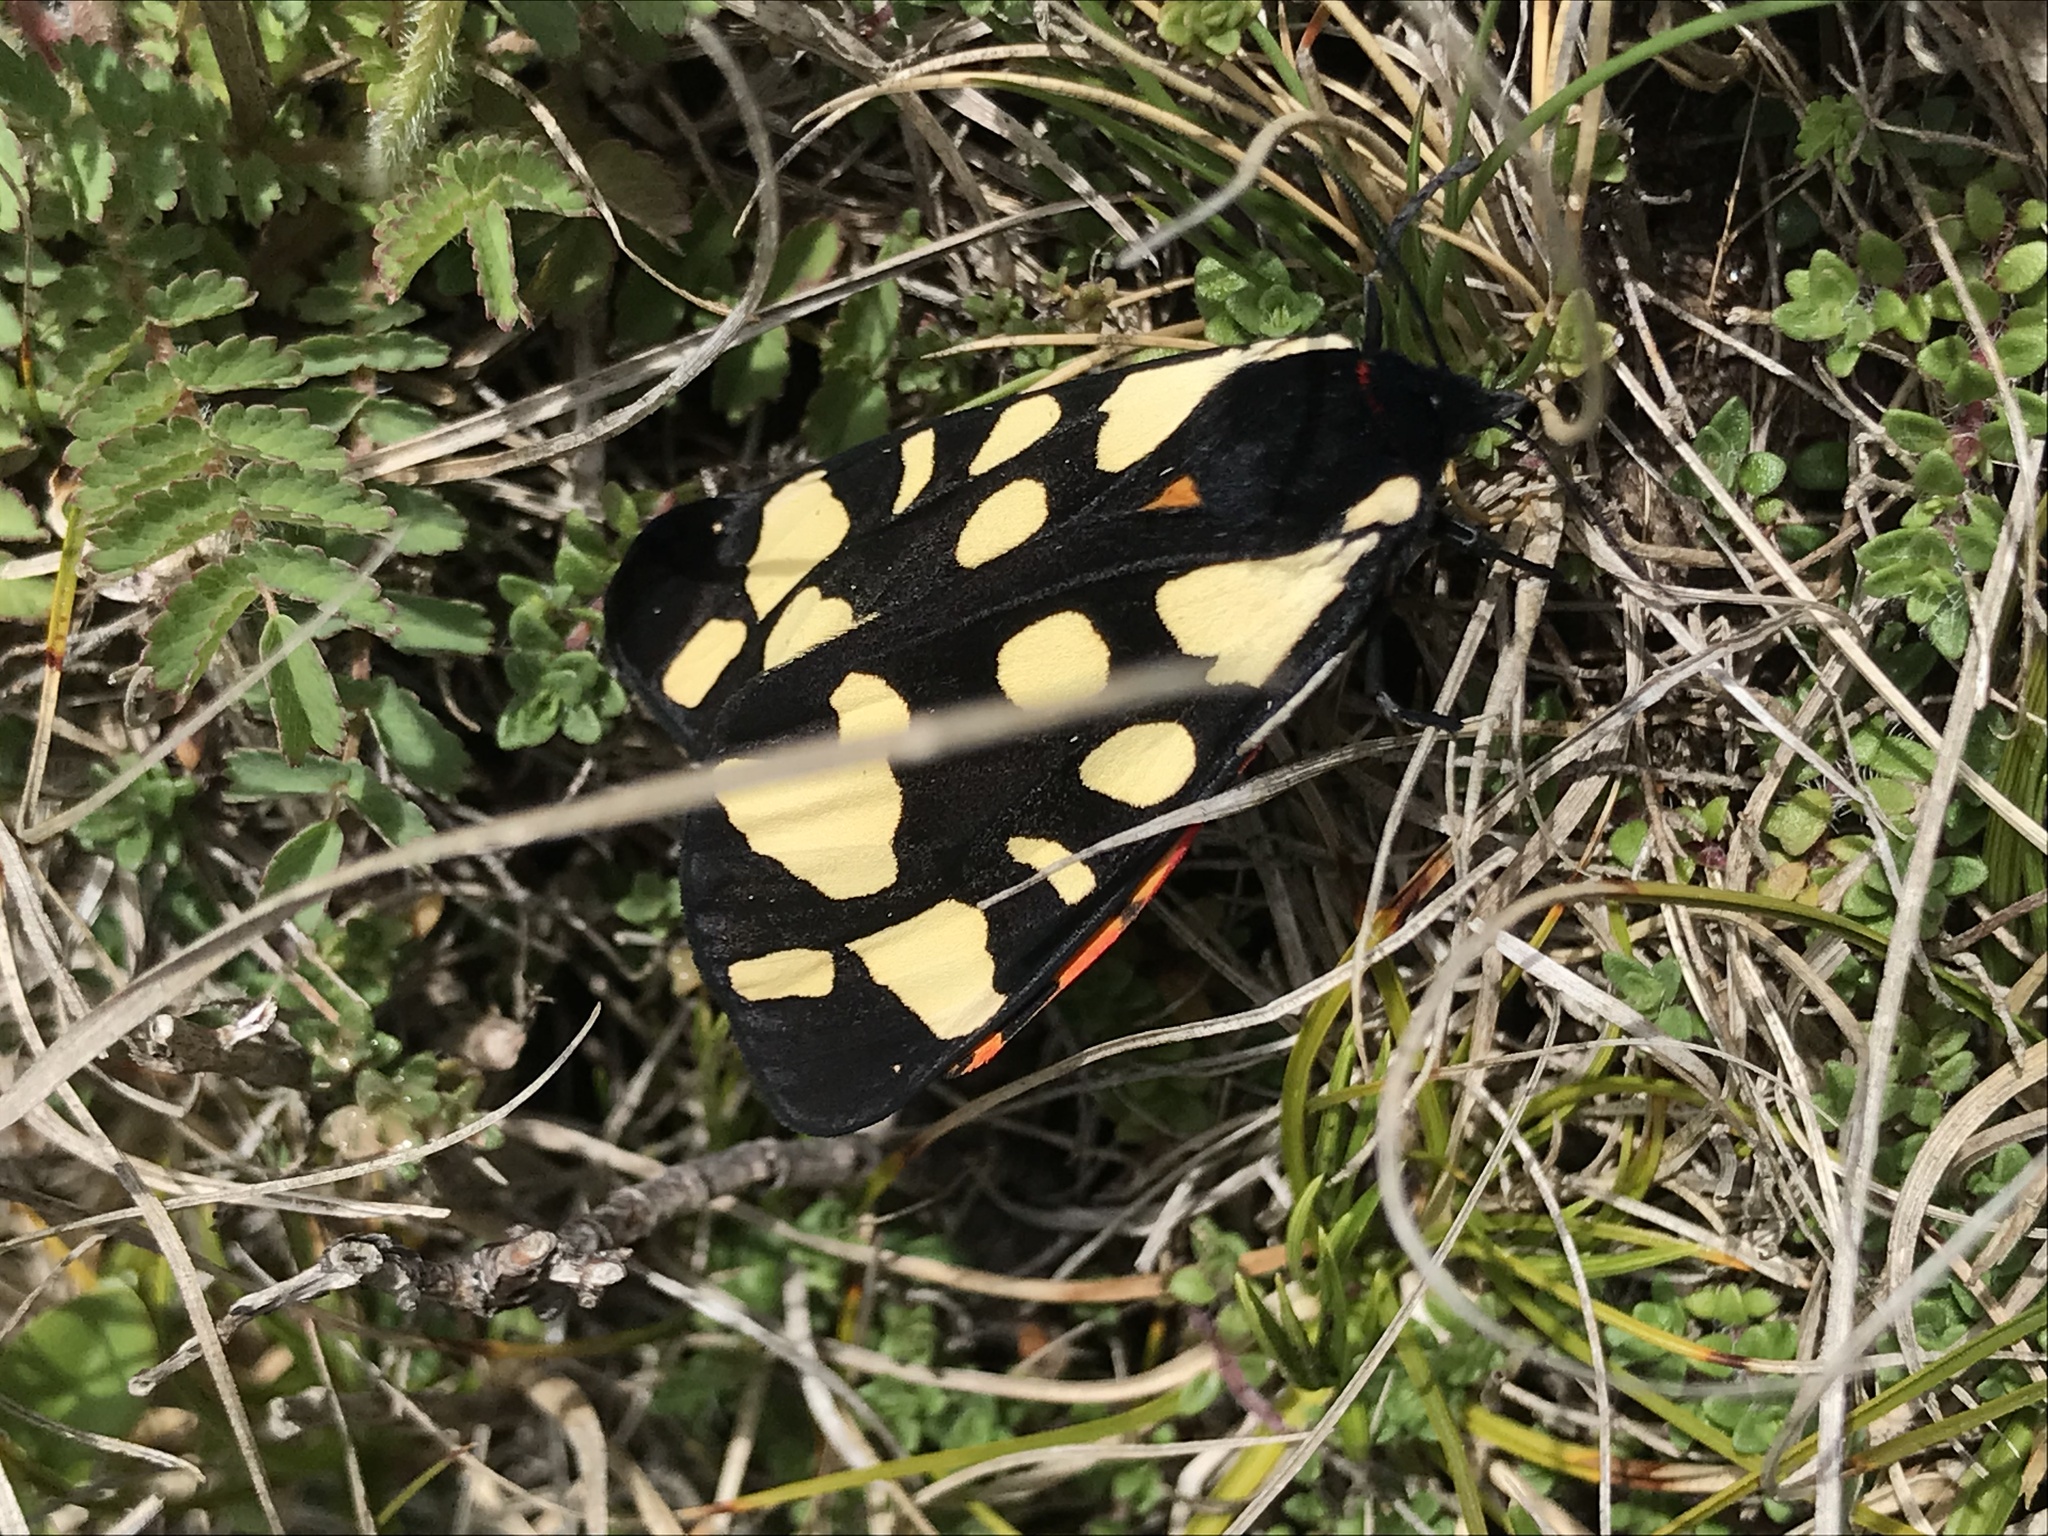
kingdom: Animalia
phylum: Arthropoda
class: Insecta
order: Lepidoptera
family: Erebidae
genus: Epicallia
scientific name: Epicallia villica
